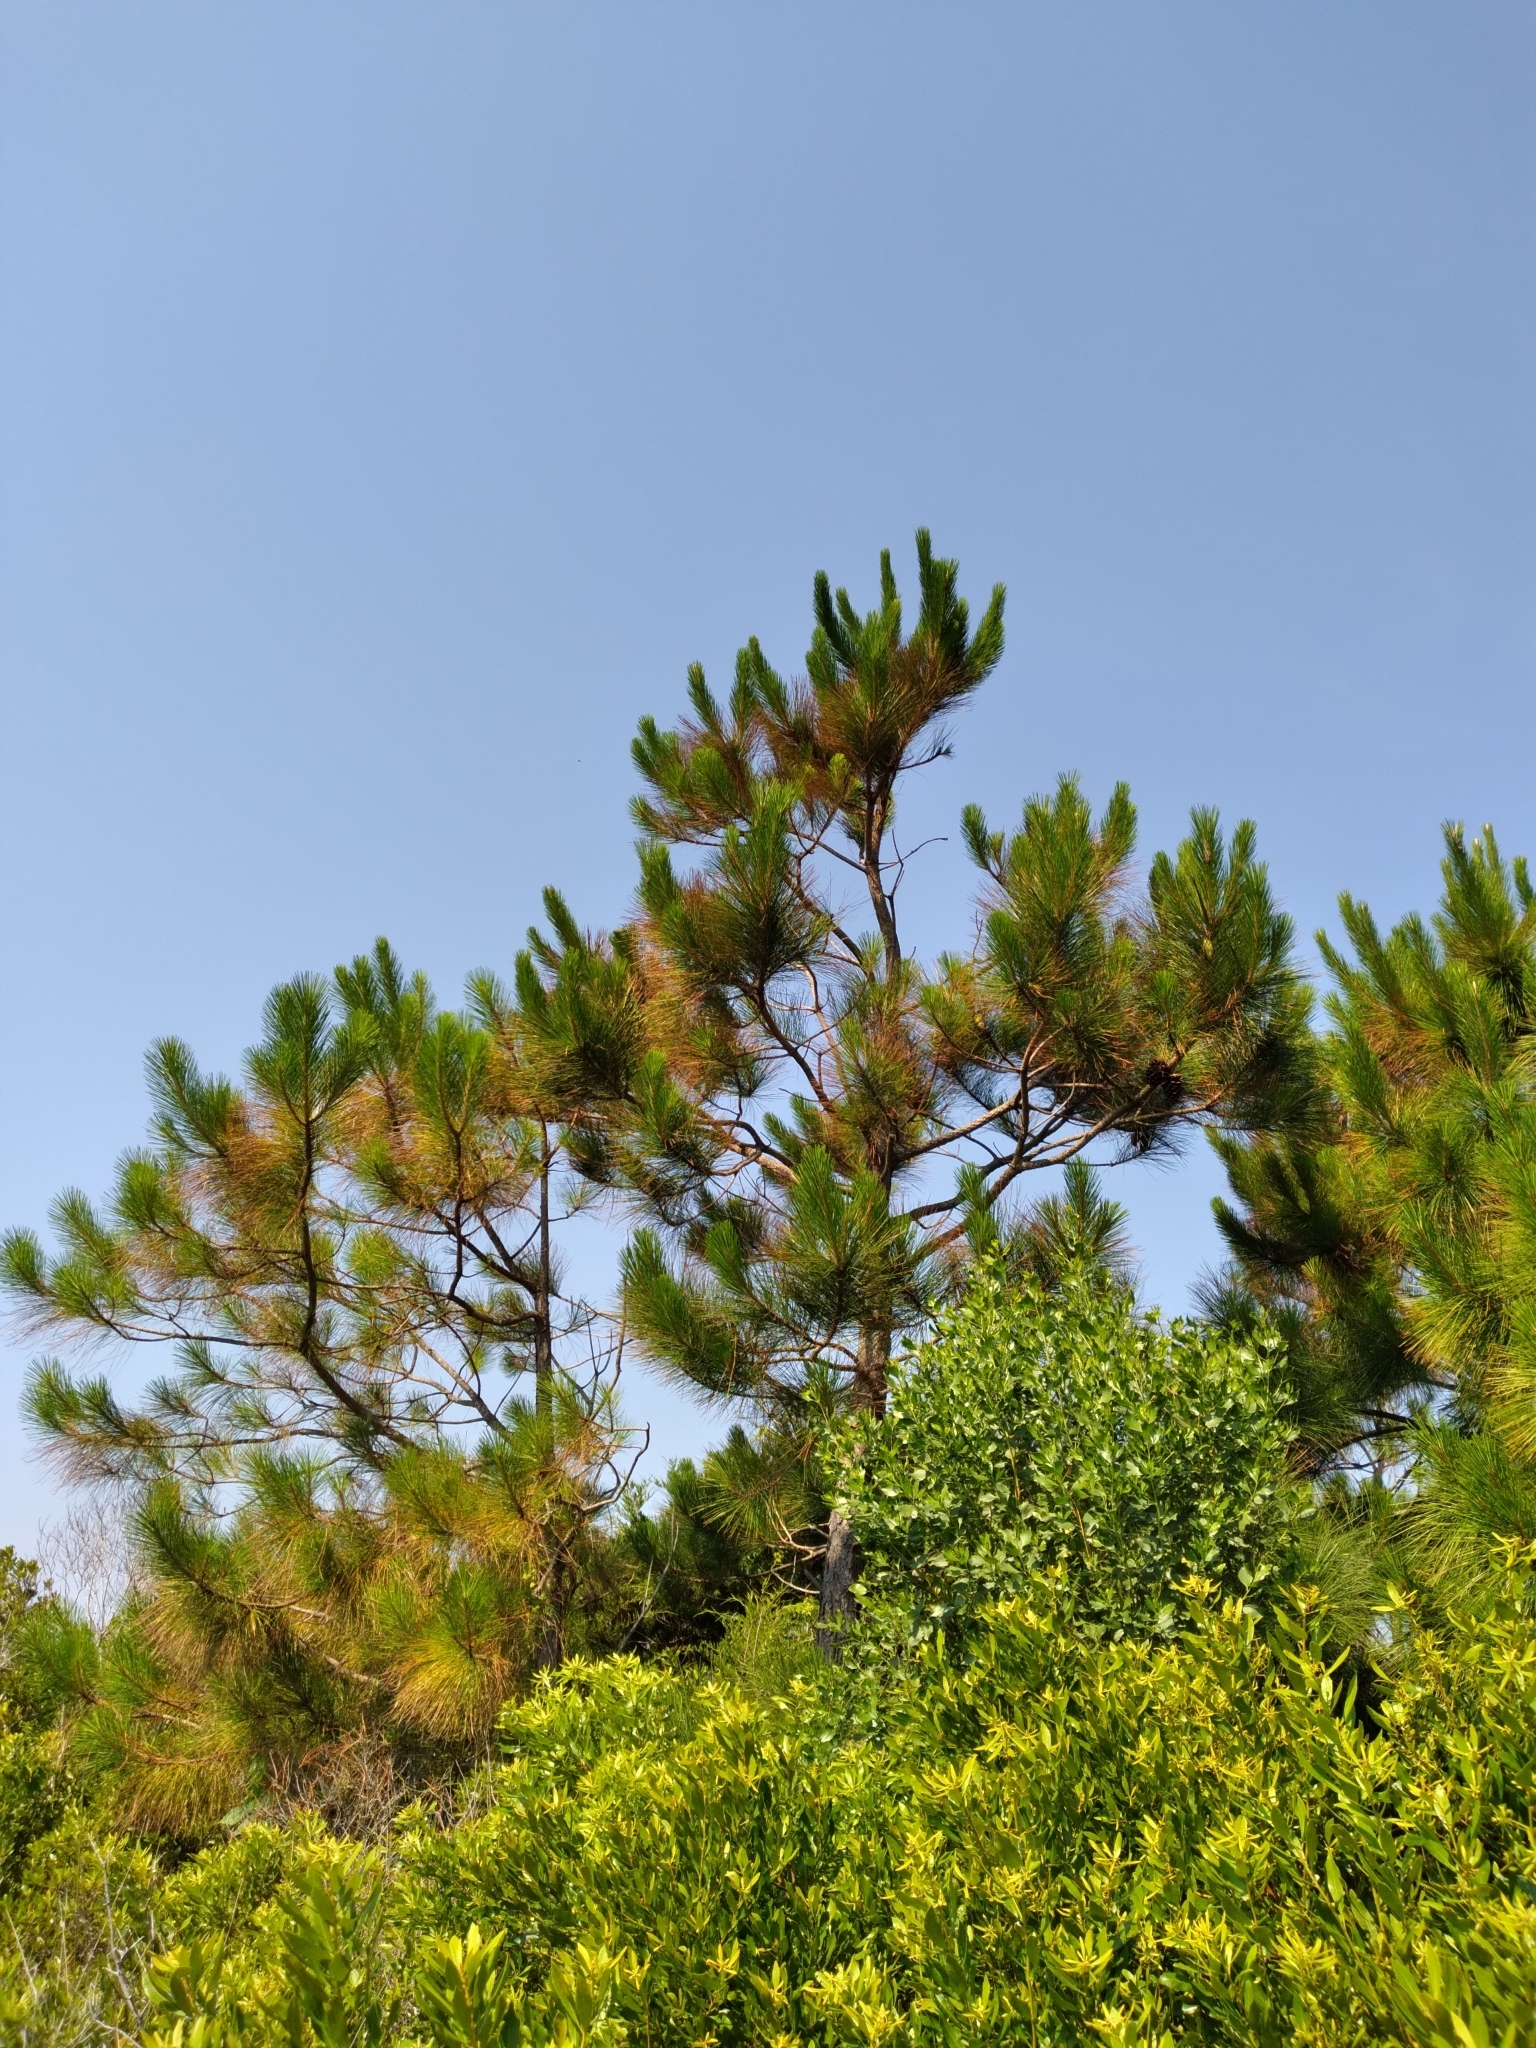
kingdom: Plantae
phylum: Tracheophyta
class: Pinopsida
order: Pinales
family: Pinaceae
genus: Pinus
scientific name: Pinus elliottii
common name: Slash pine
